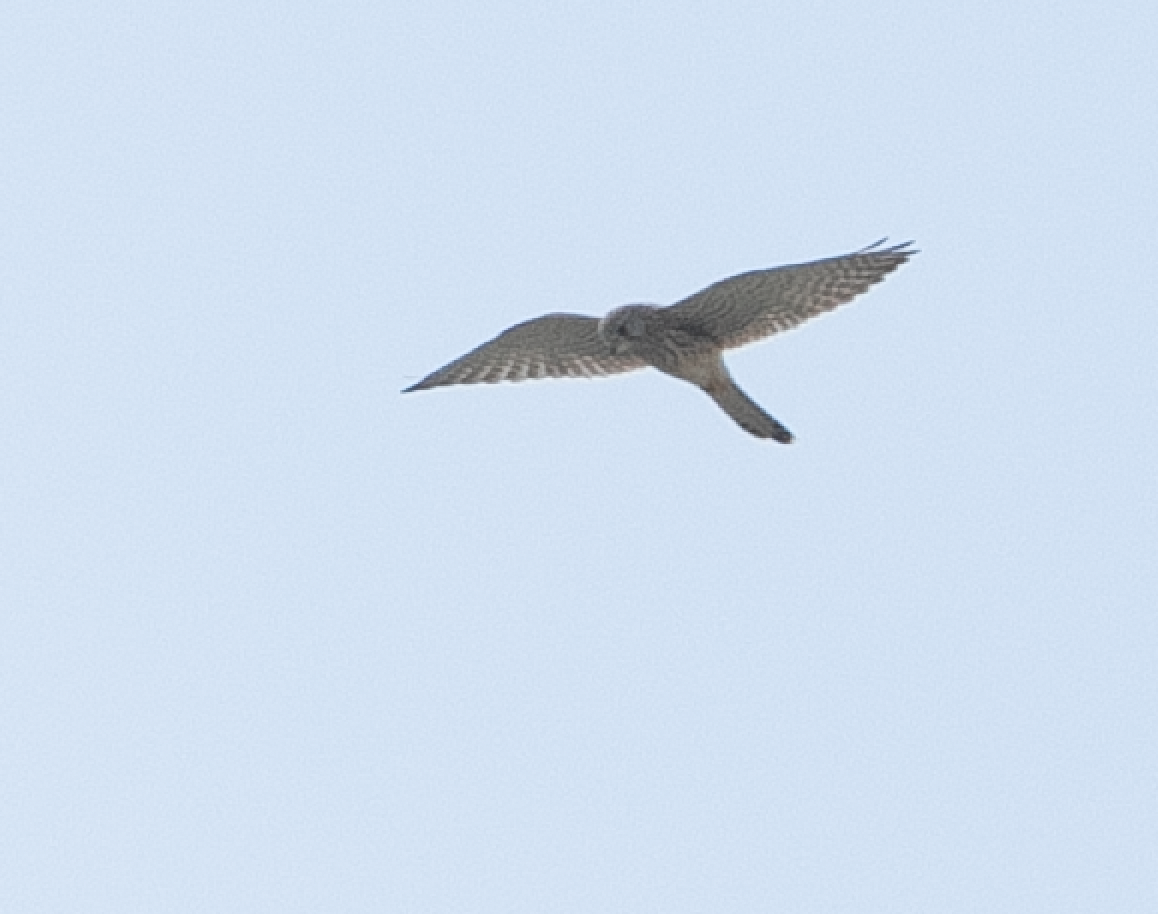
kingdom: Animalia
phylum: Chordata
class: Aves
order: Falconiformes
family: Falconidae
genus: Falco
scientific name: Falco tinnunculus
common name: Common kestrel
